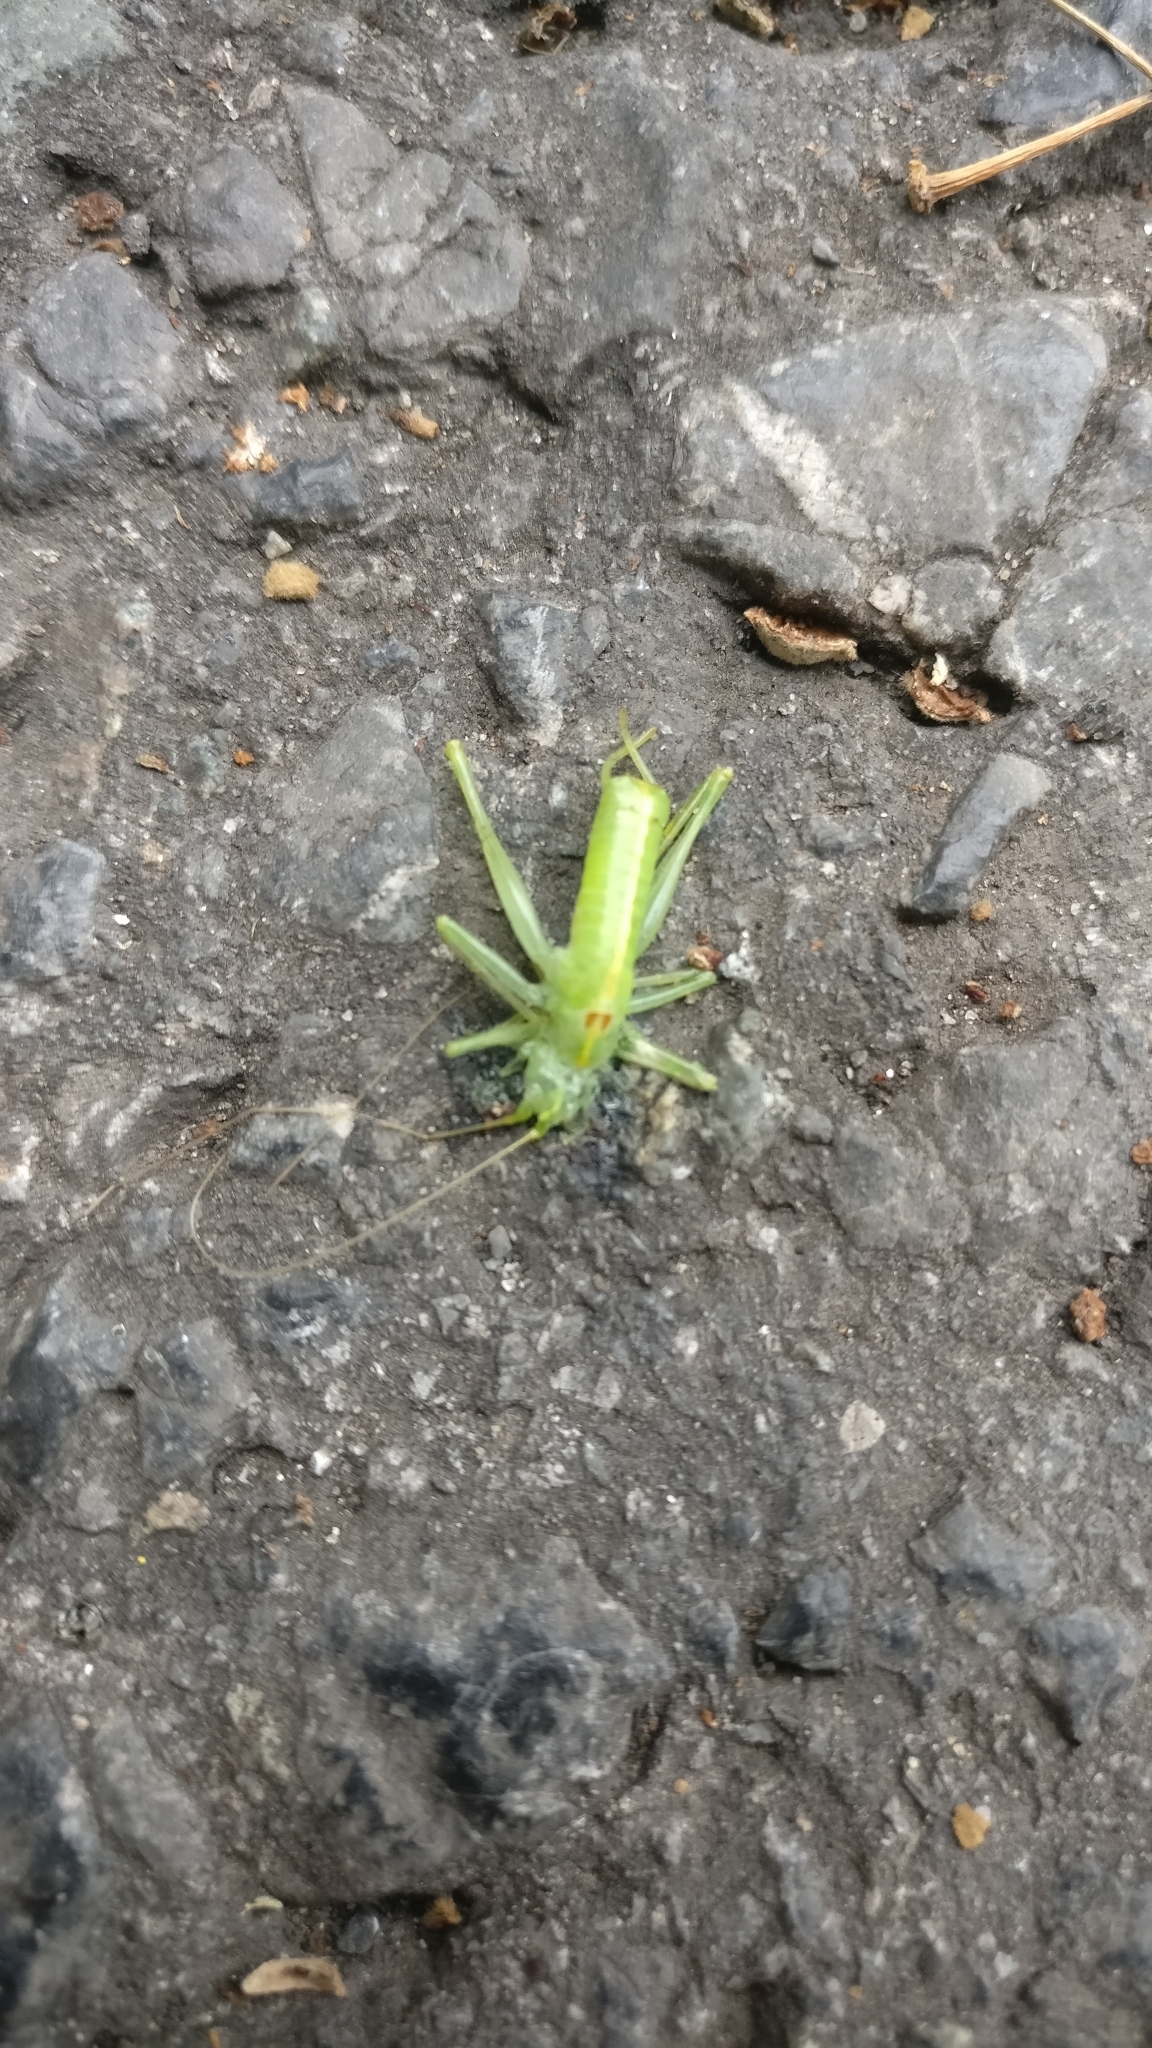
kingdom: Animalia
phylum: Arthropoda
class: Insecta
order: Orthoptera
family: Tettigoniidae
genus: Meconema
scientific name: Meconema meridionale
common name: Southern oak bush-cricket
